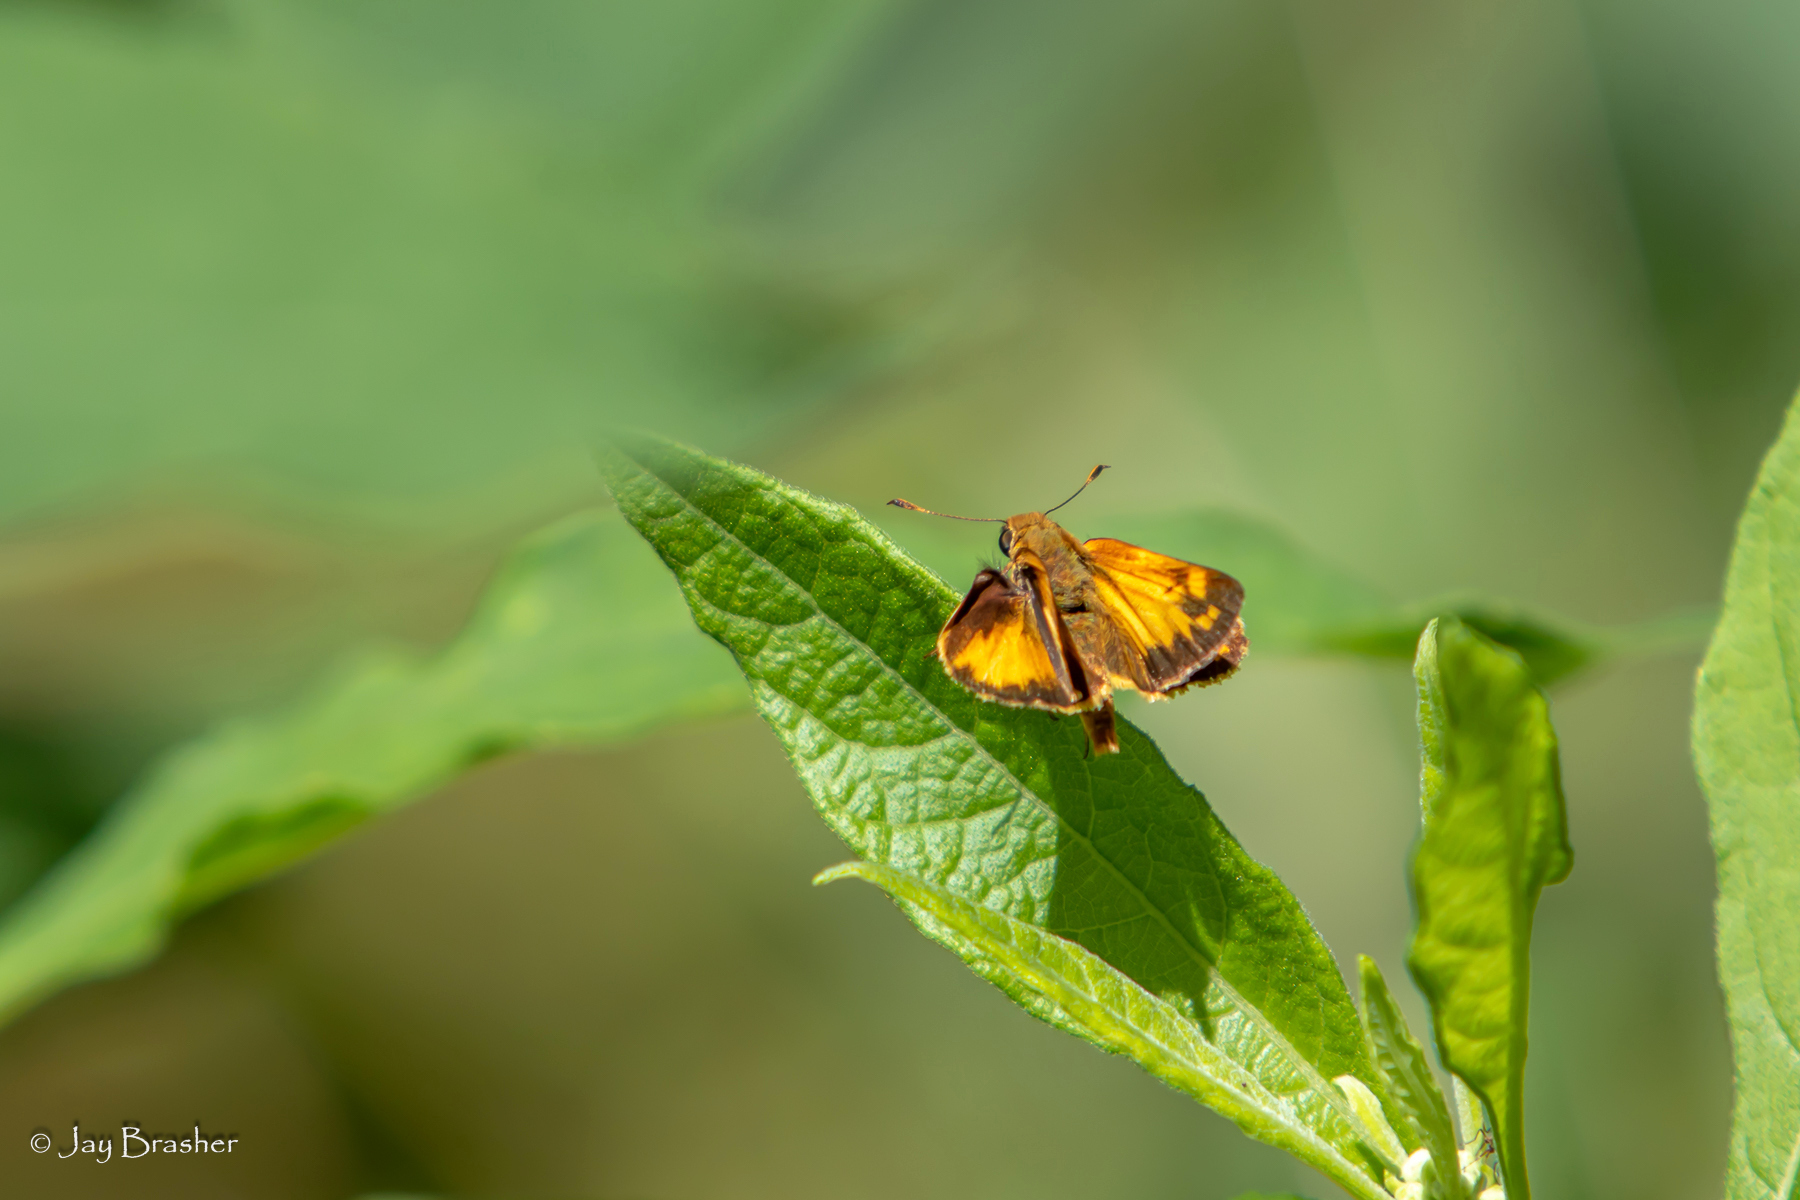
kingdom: Animalia
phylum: Arthropoda
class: Insecta
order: Lepidoptera
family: Hesperiidae
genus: Lon
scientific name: Lon zabulon
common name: Zabulon skipper
